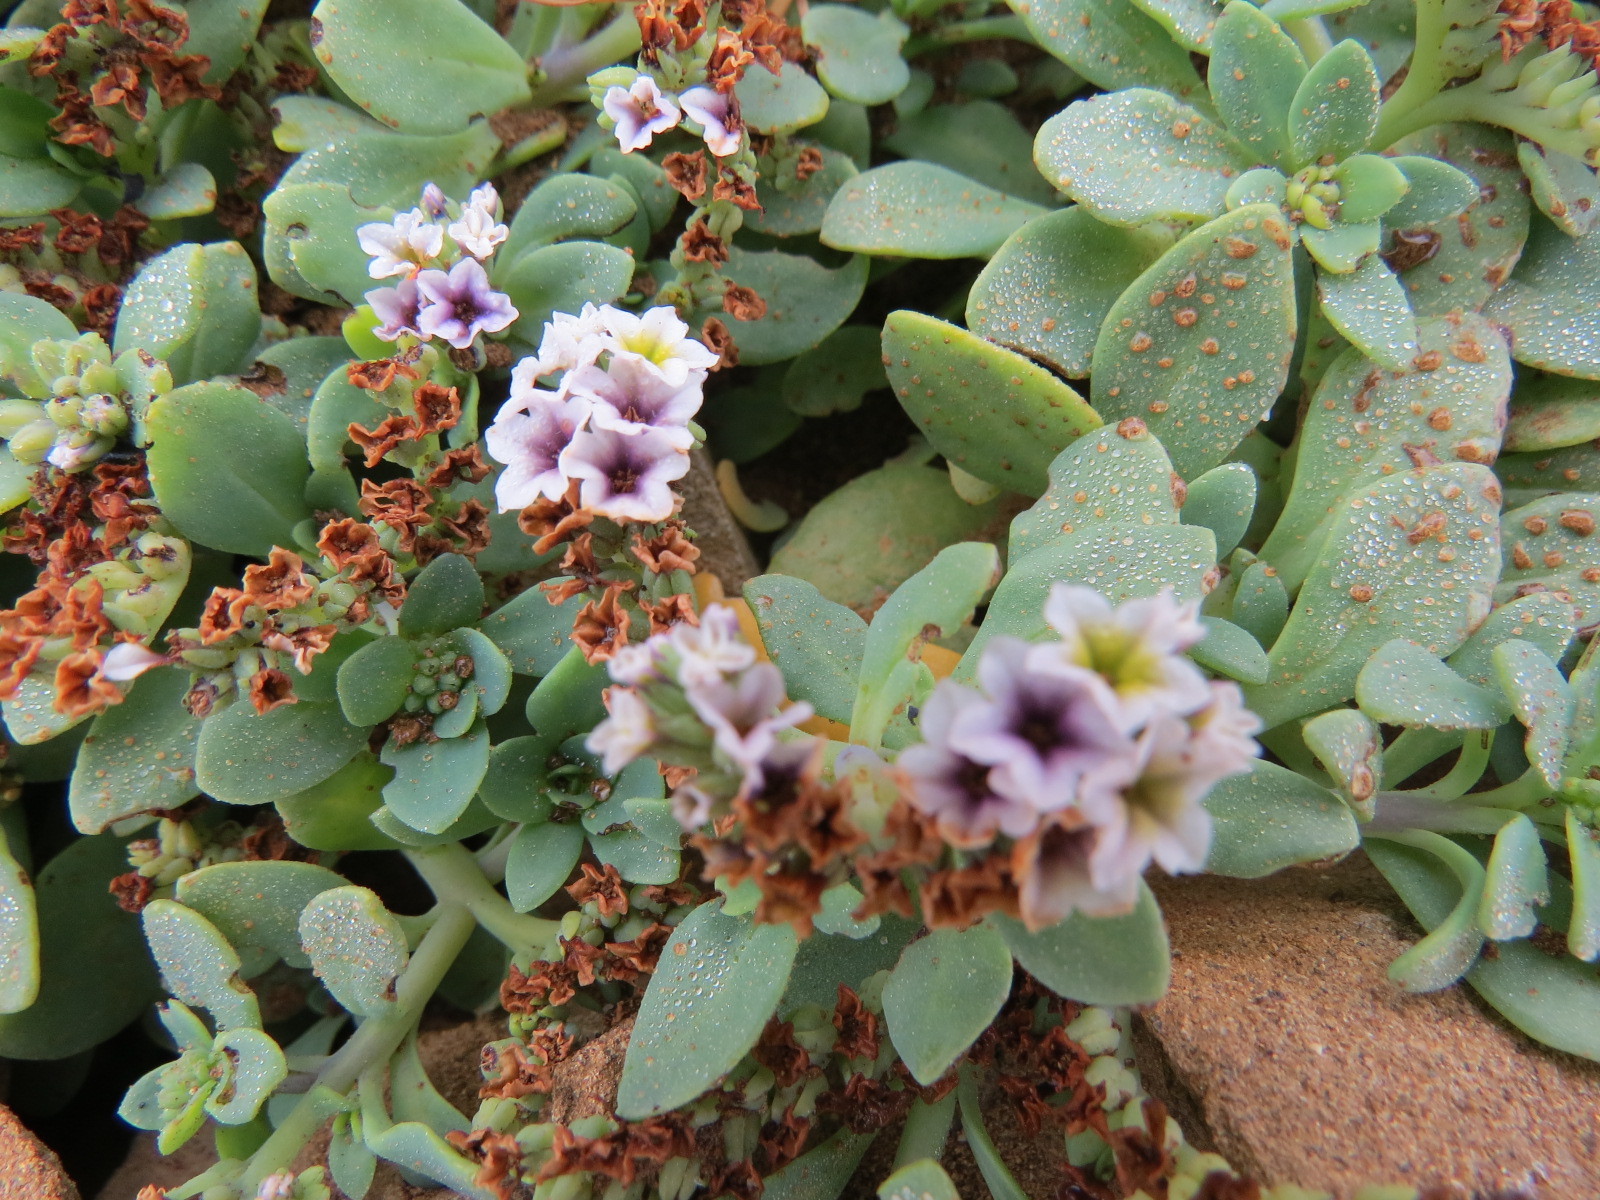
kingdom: Plantae
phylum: Tracheophyta
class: Magnoliopsida
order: Boraginales
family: Heliotropiaceae
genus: Heliotropium
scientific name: Heliotropium curassavicum
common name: Seaside heliotrope
